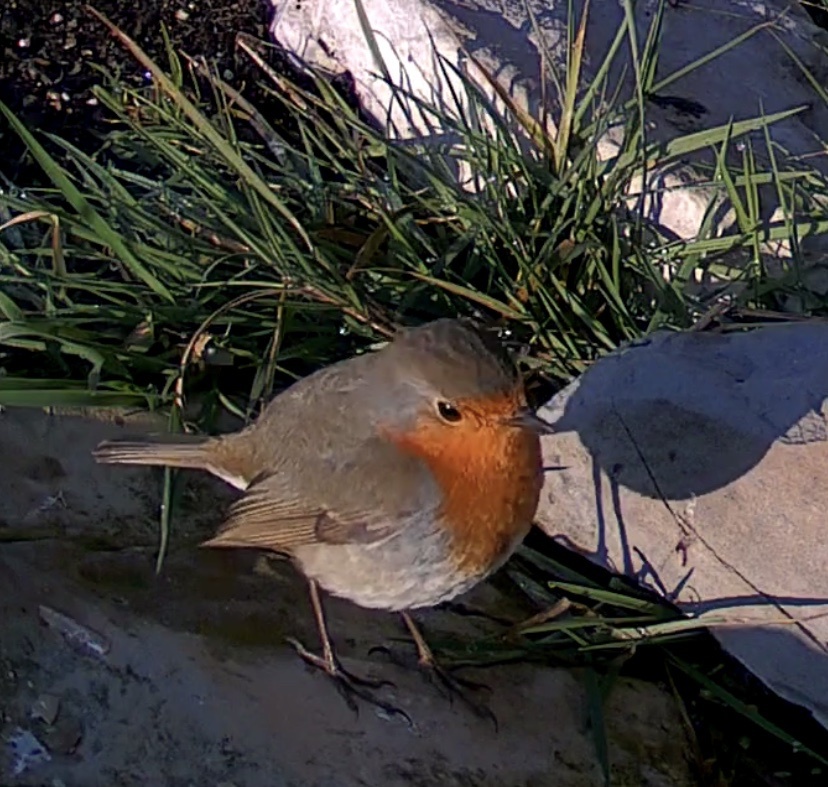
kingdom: Animalia
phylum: Chordata
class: Aves
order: Passeriformes
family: Muscicapidae
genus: Erithacus
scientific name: Erithacus rubecula
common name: European robin
